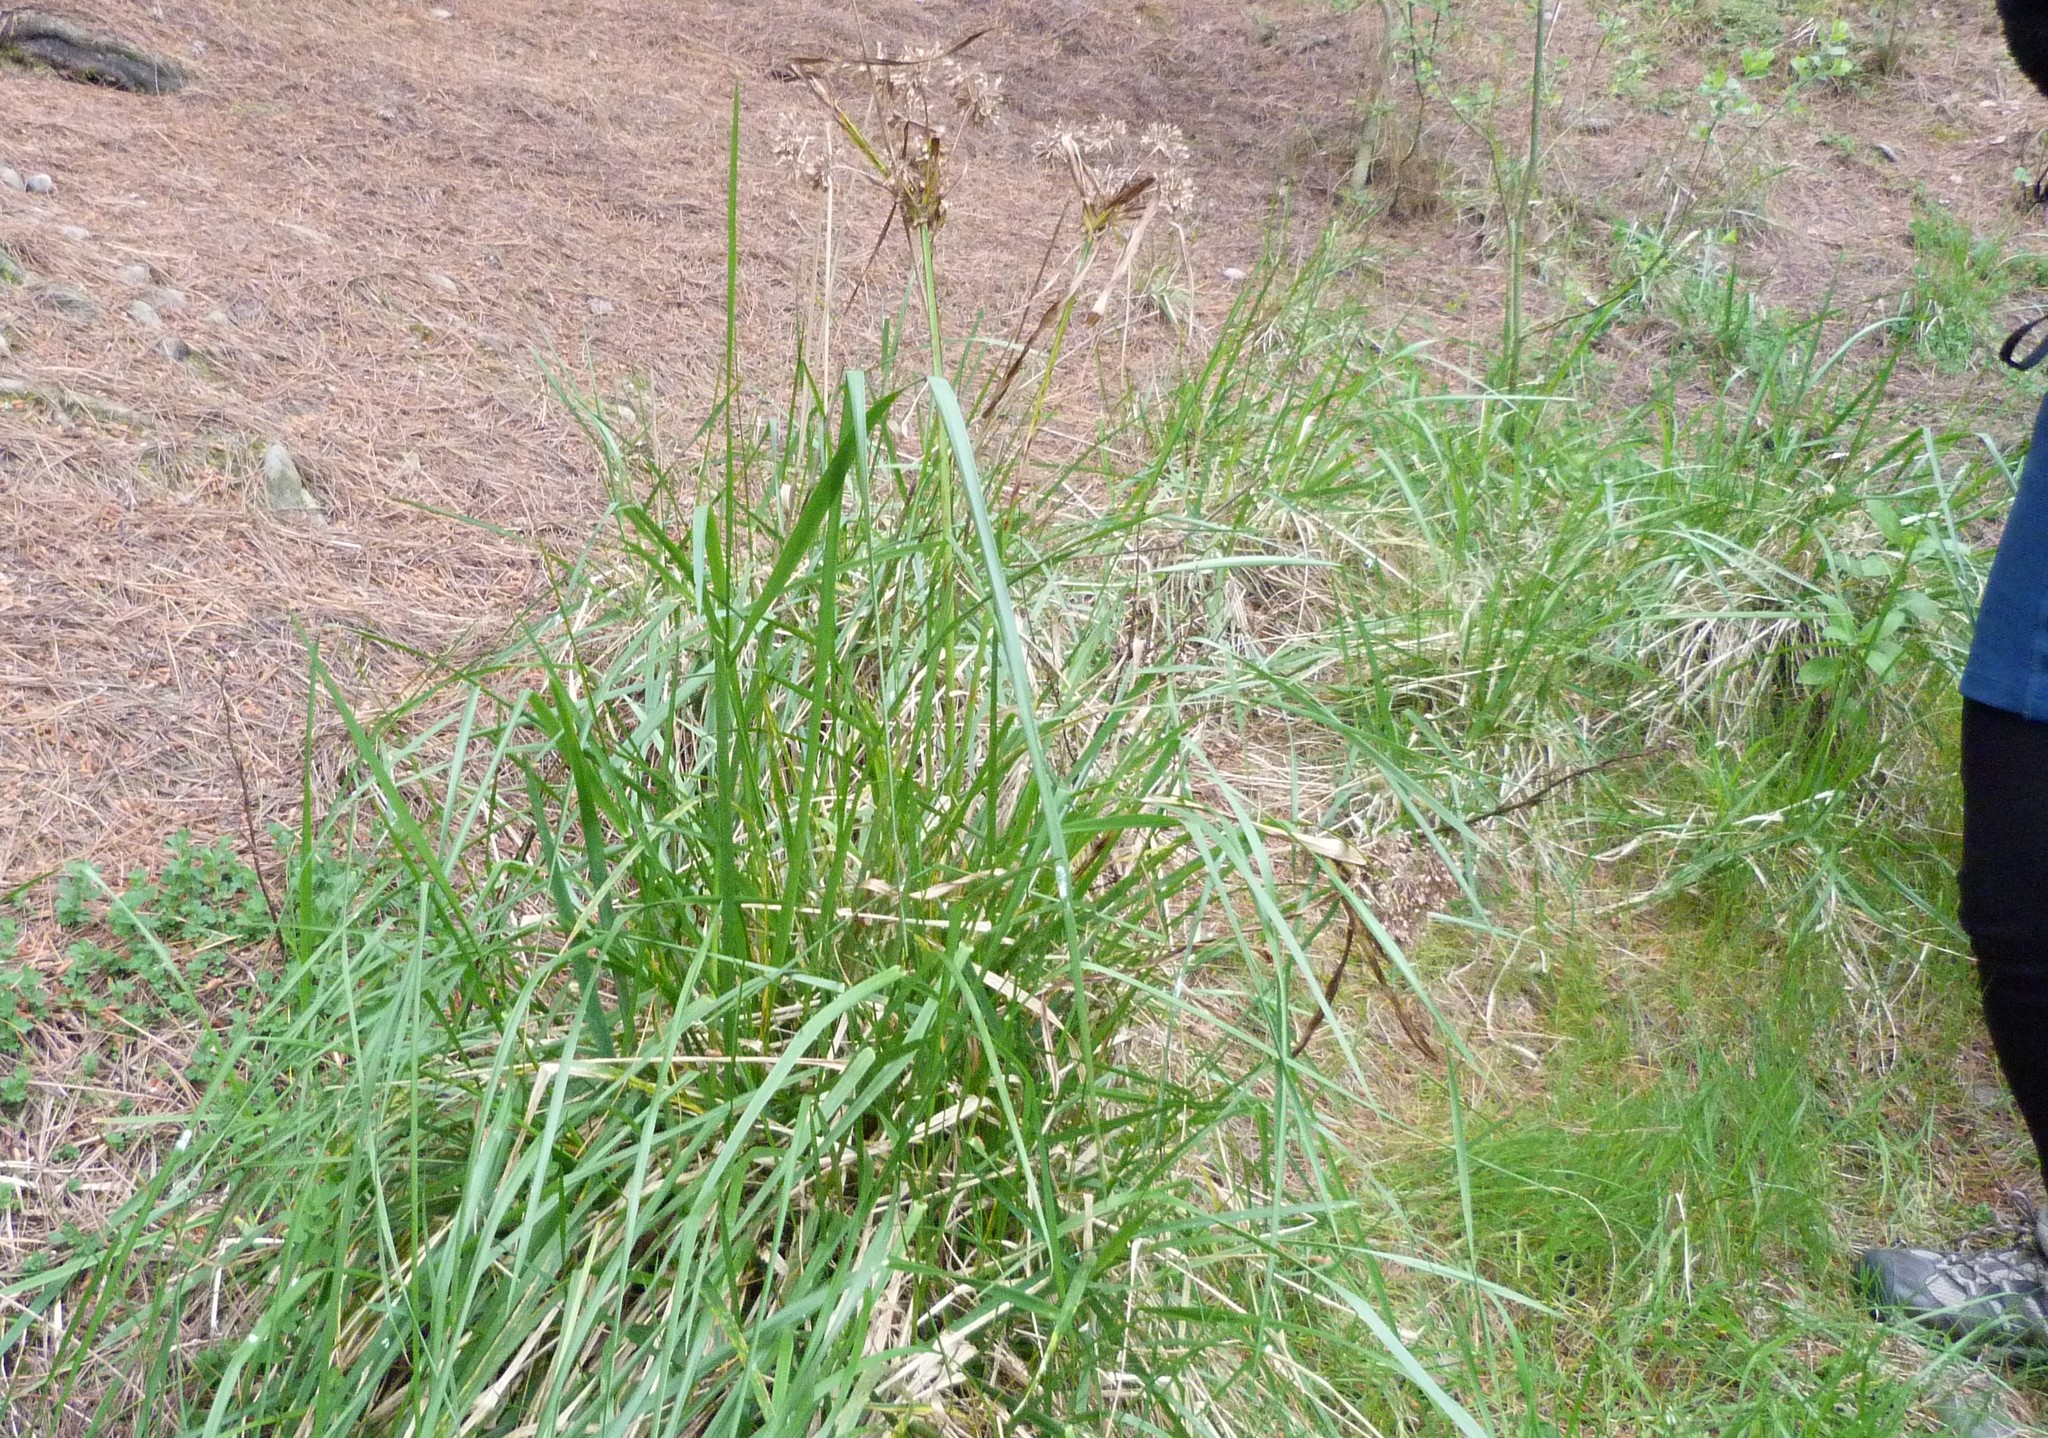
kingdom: Plantae
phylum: Tracheophyta
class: Liliopsida
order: Poales
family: Cyperaceae
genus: Cyperus
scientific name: Cyperus eragrostis
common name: Tall flatsedge
